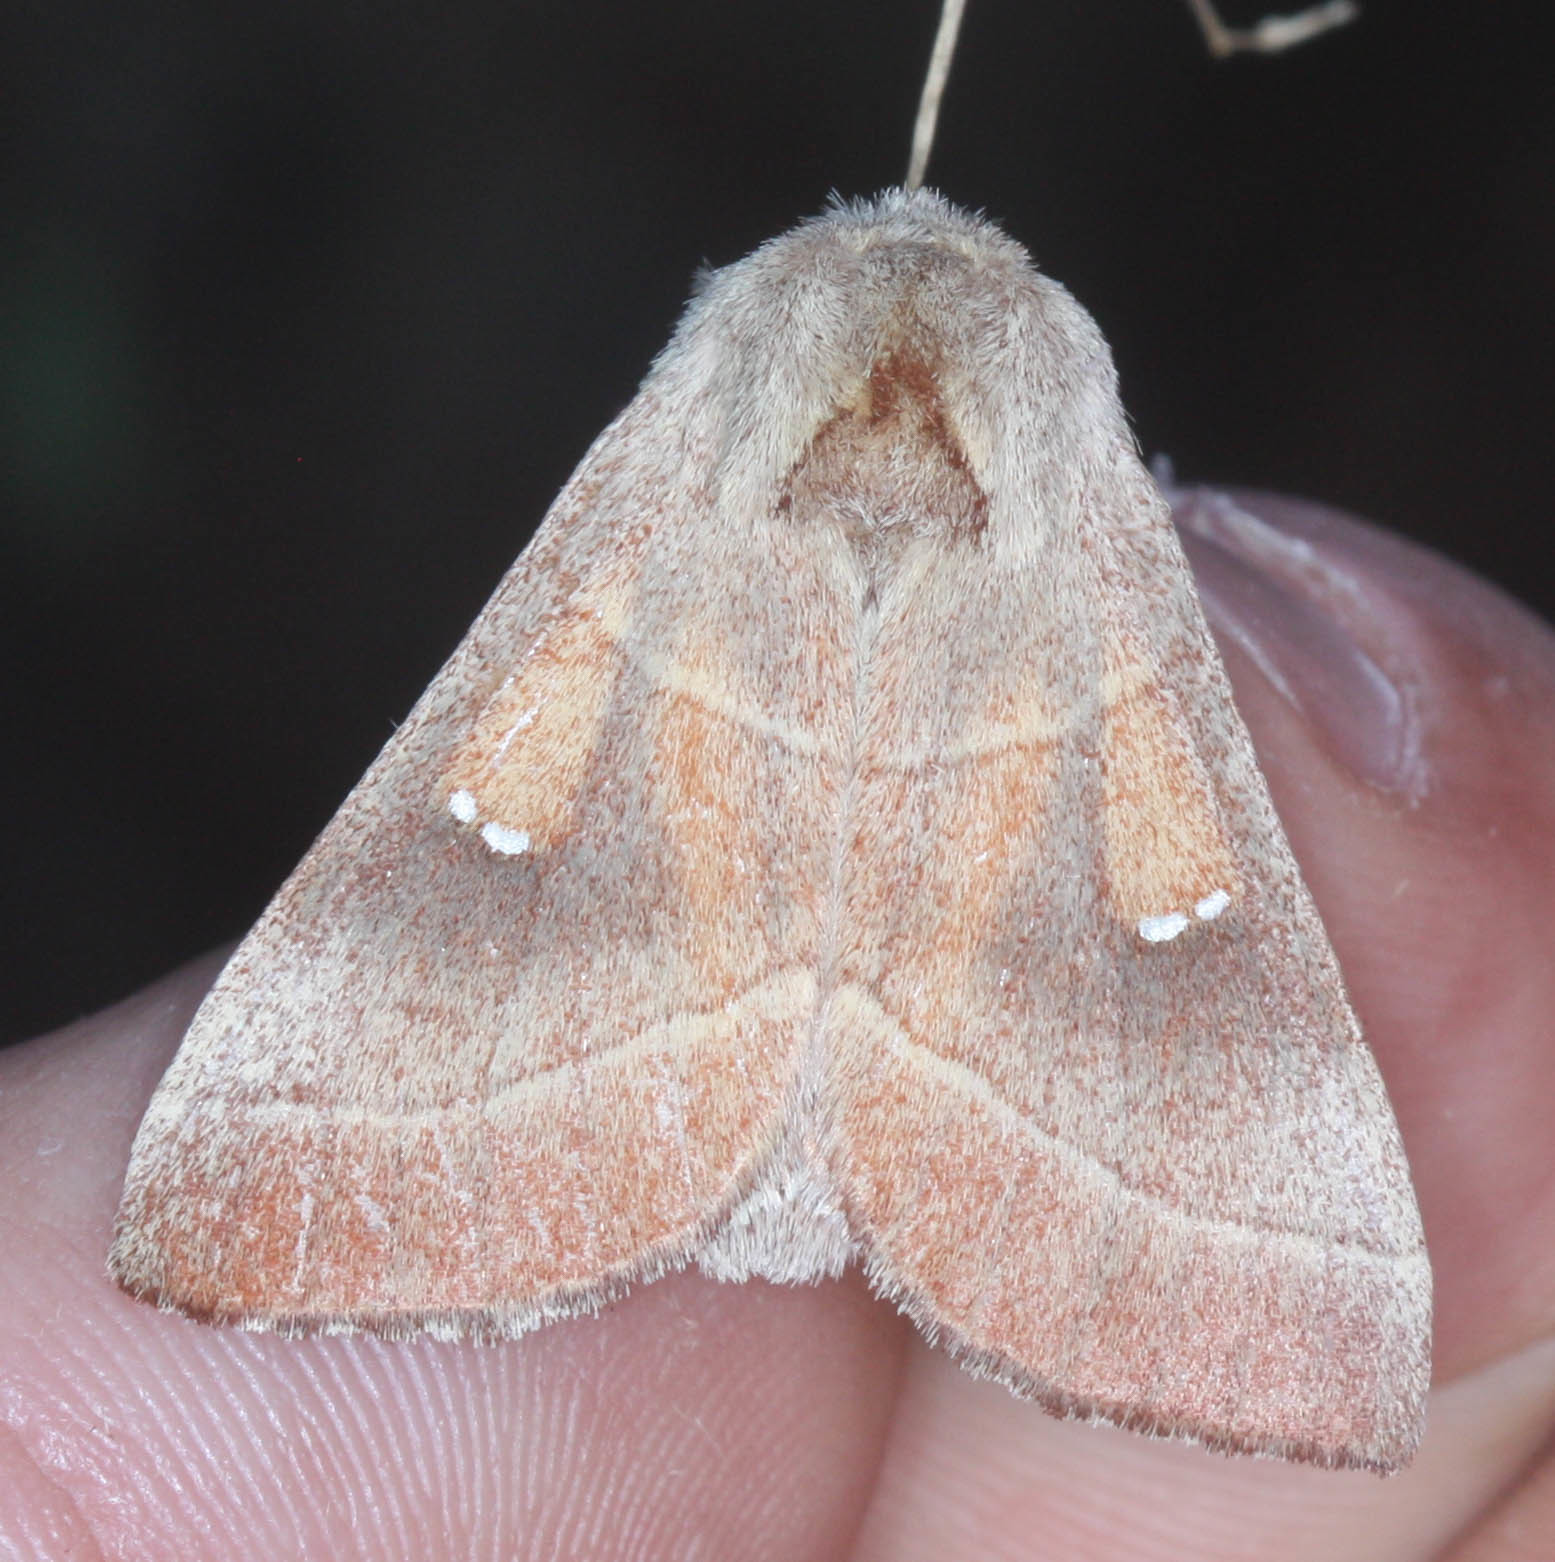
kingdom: Animalia
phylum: Arthropoda
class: Insecta
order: Lepidoptera
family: Notodontidae
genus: Nadata
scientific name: Nadata gibbosa
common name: White-dotted prominent
